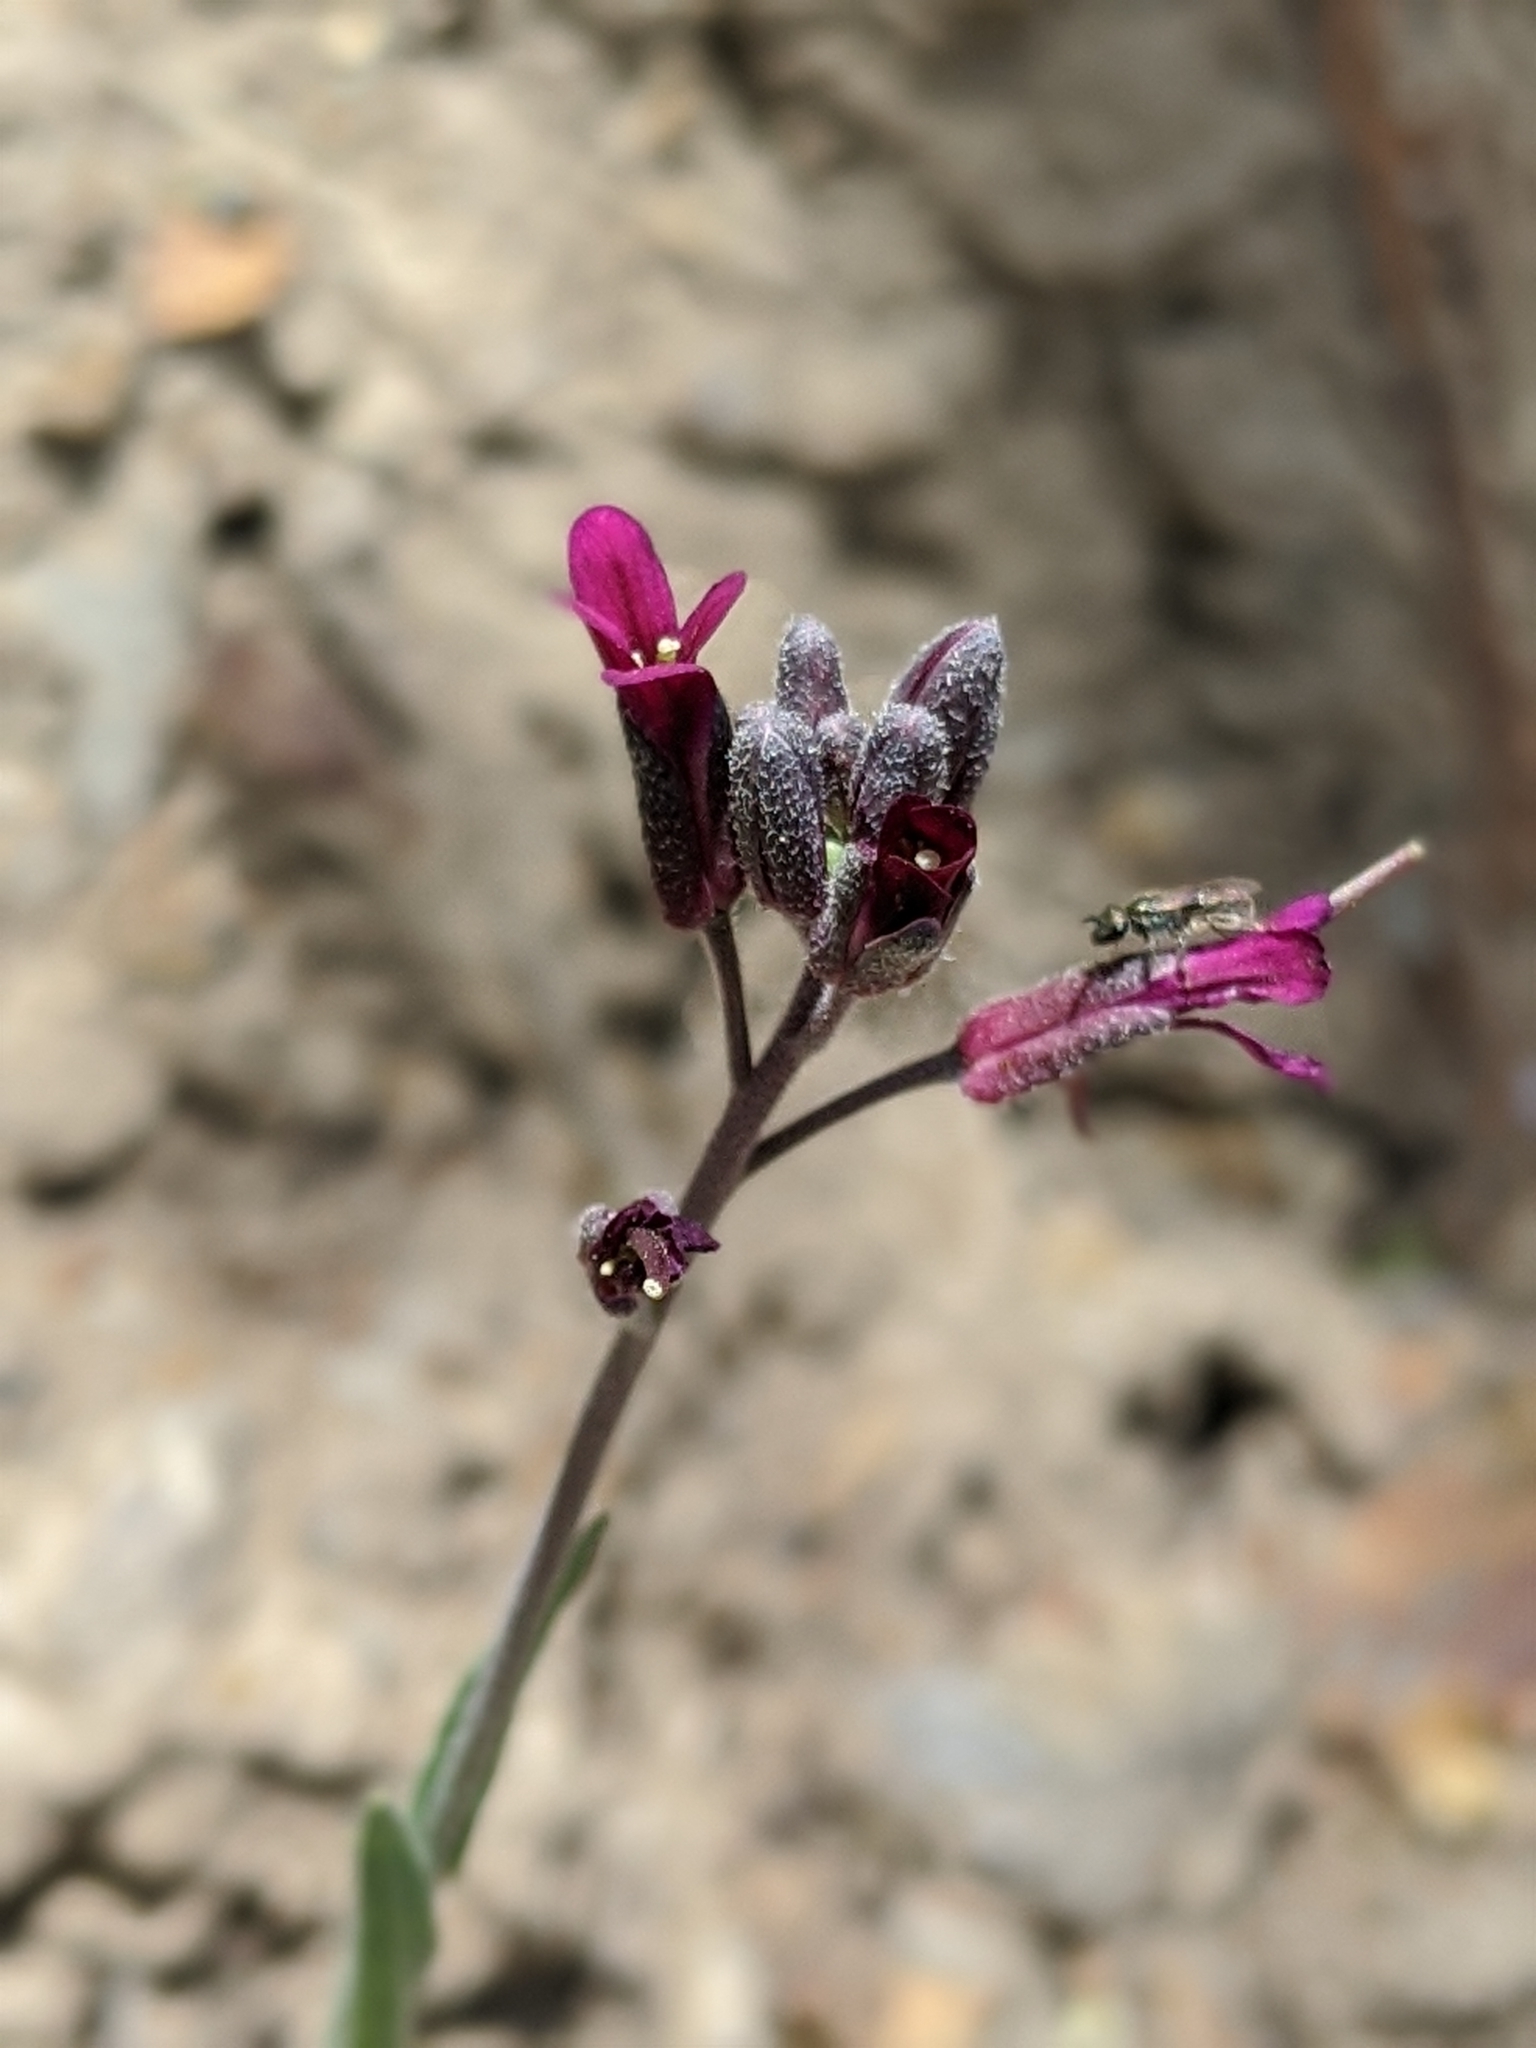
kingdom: Plantae
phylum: Tracheophyta
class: Magnoliopsida
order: Brassicales
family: Brassicaceae
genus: Boechera
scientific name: Boechera arcuata
